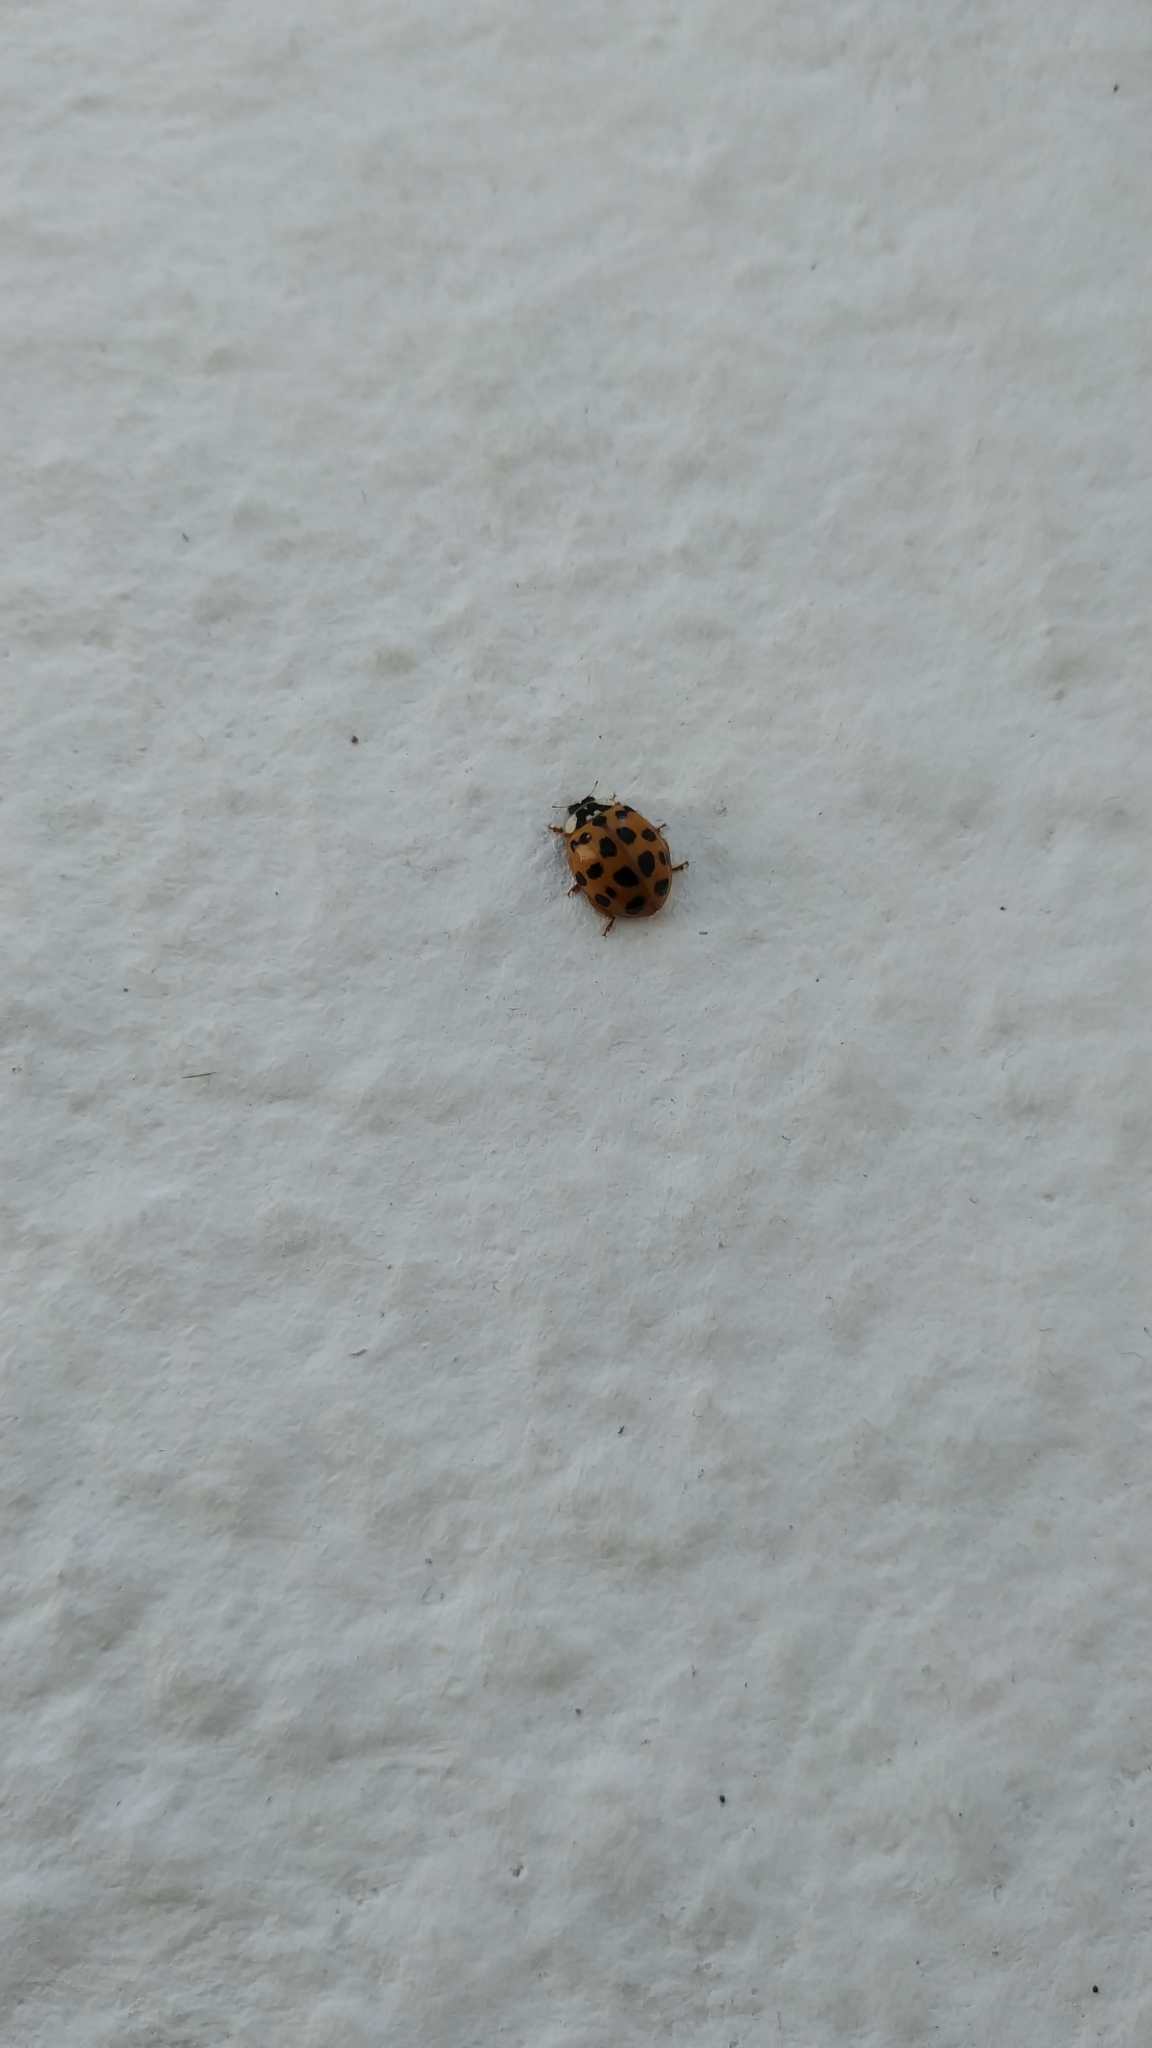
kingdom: Animalia
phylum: Arthropoda
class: Insecta
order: Coleoptera
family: Coccinellidae
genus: Harmonia
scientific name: Harmonia axyridis
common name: Harlequin ladybird
